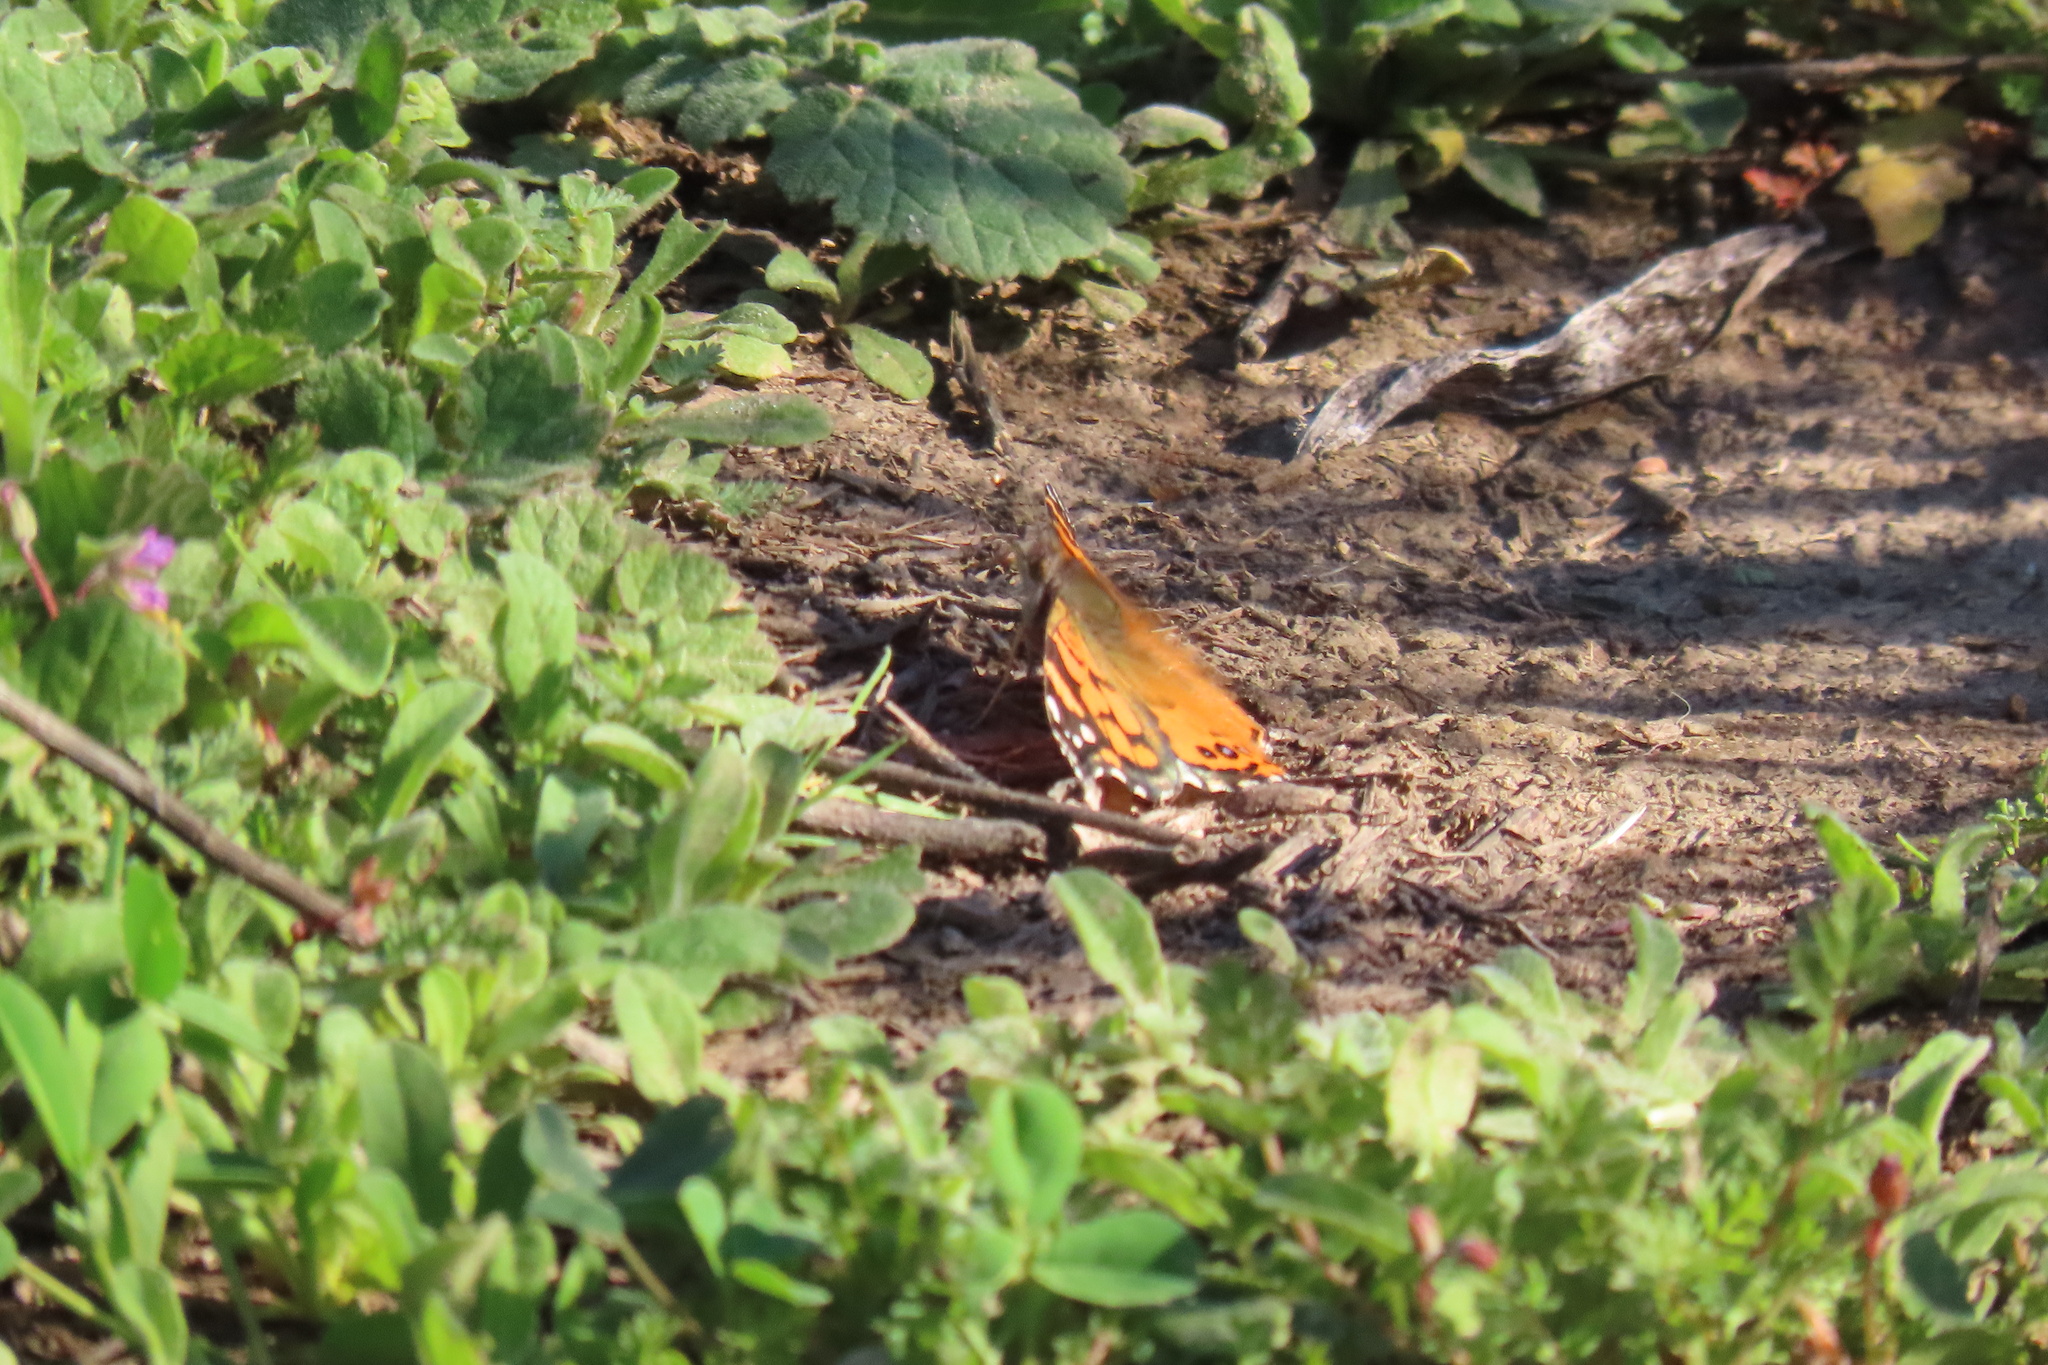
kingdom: Animalia
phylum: Arthropoda
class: Insecta
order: Lepidoptera
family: Nymphalidae
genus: Vanessa
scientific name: Vanessa annabella
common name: West coast lady
